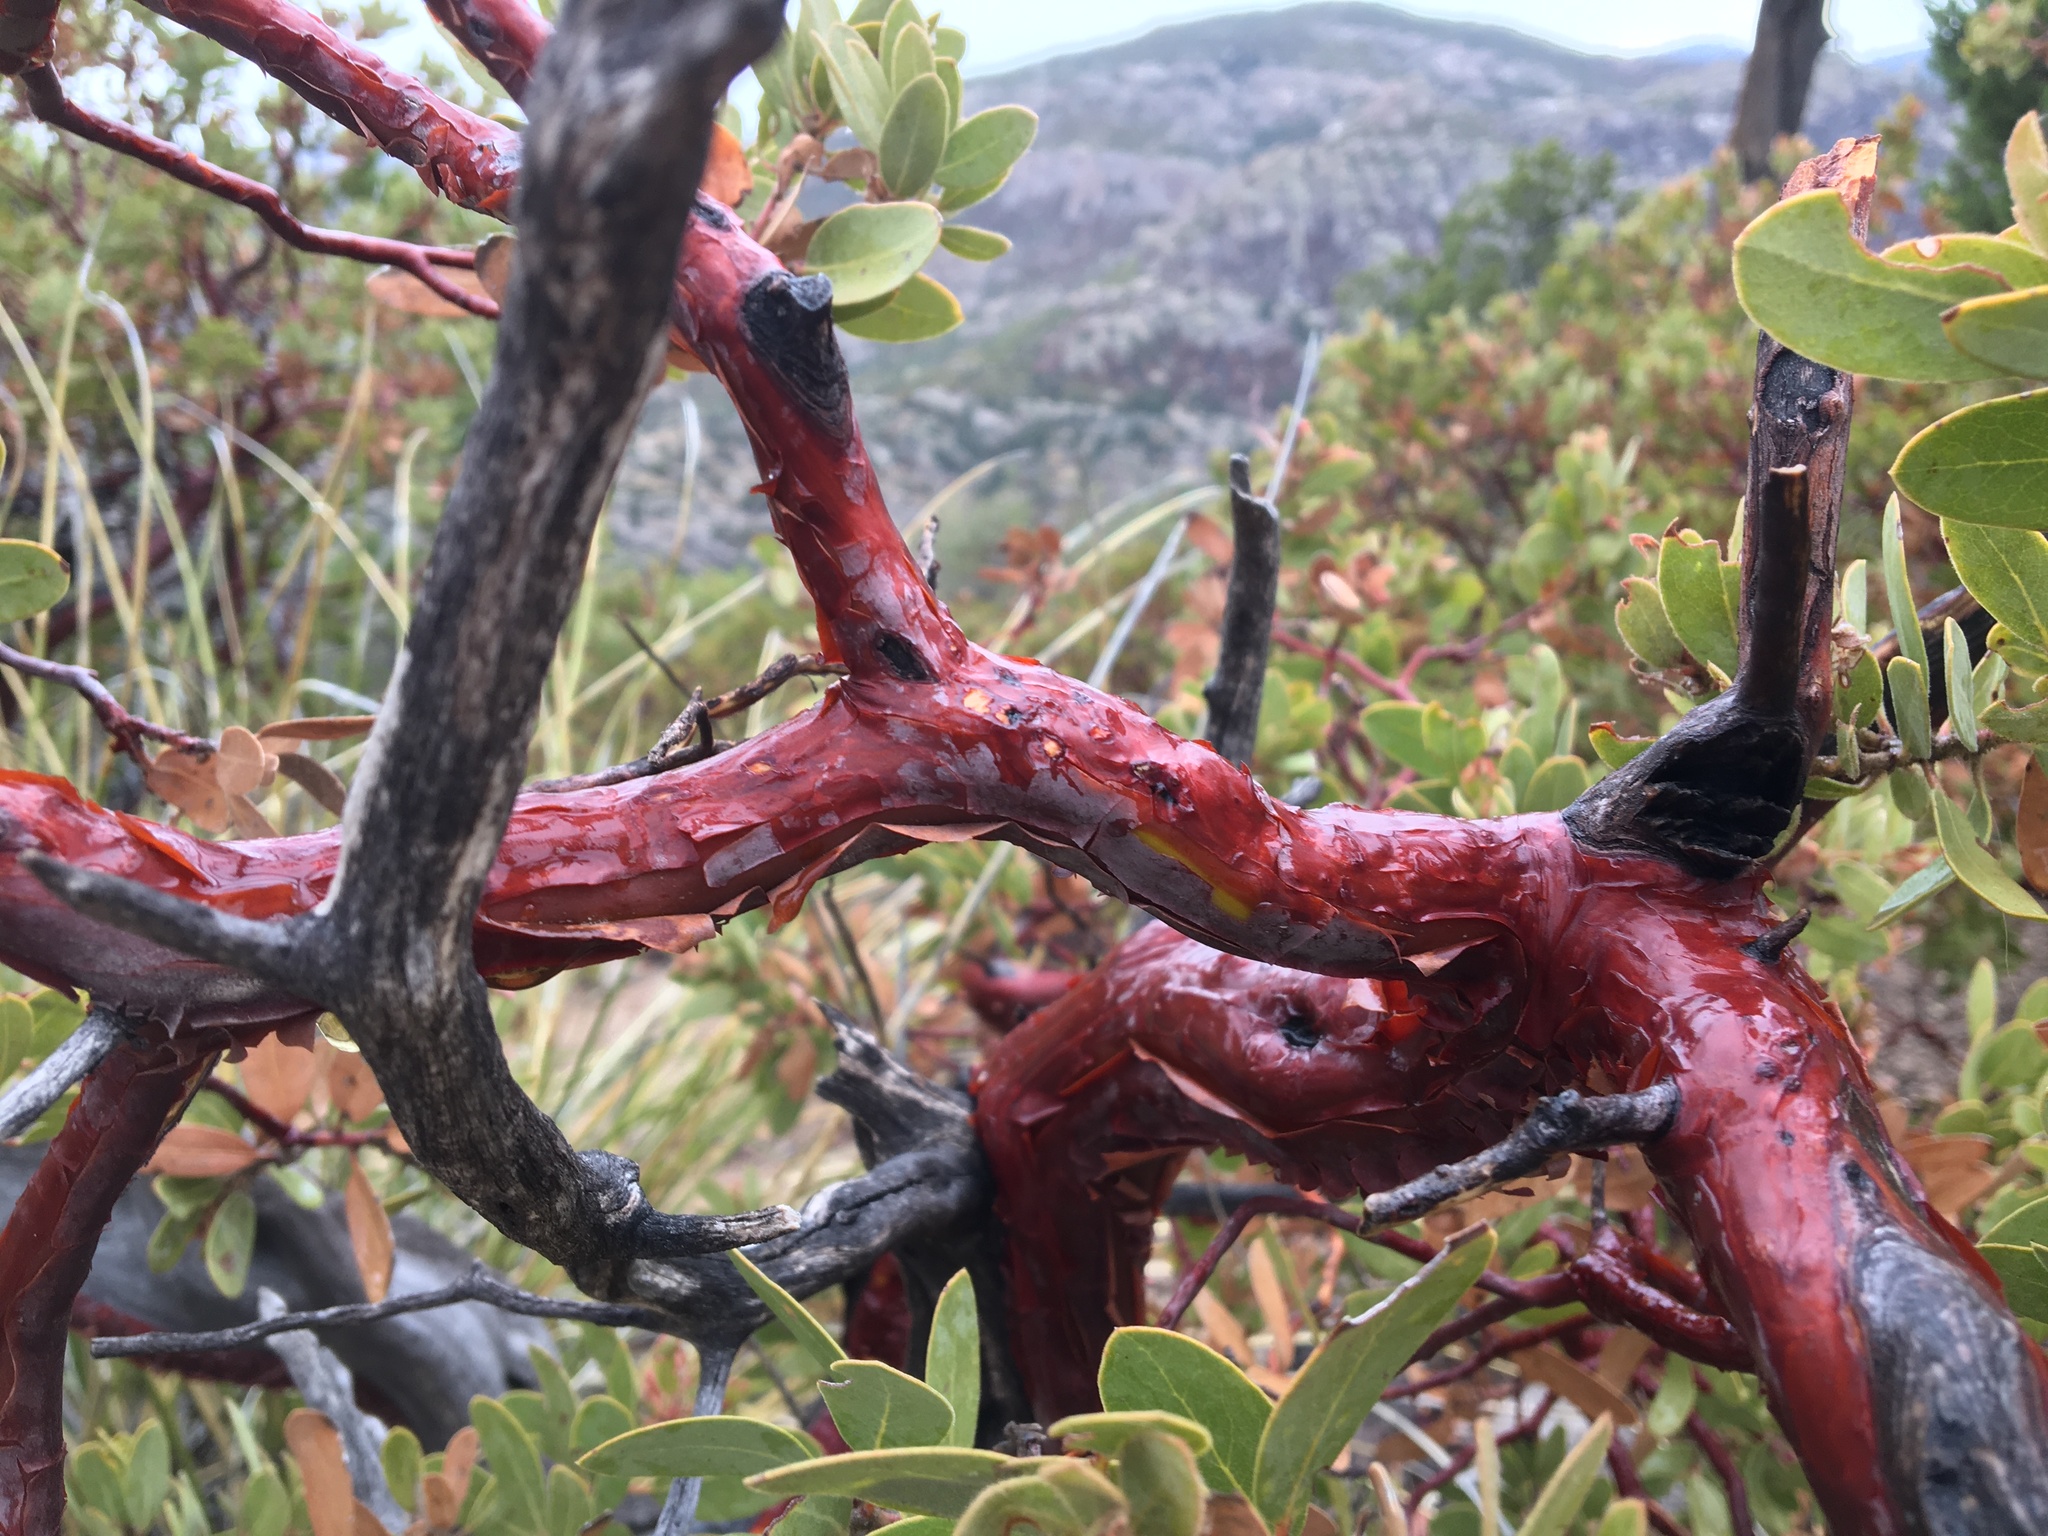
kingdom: Plantae
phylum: Tracheophyta
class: Magnoliopsida
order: Ericales
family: Ericaceae
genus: Arctostaphylos
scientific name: Arctostaphylos pringlei
